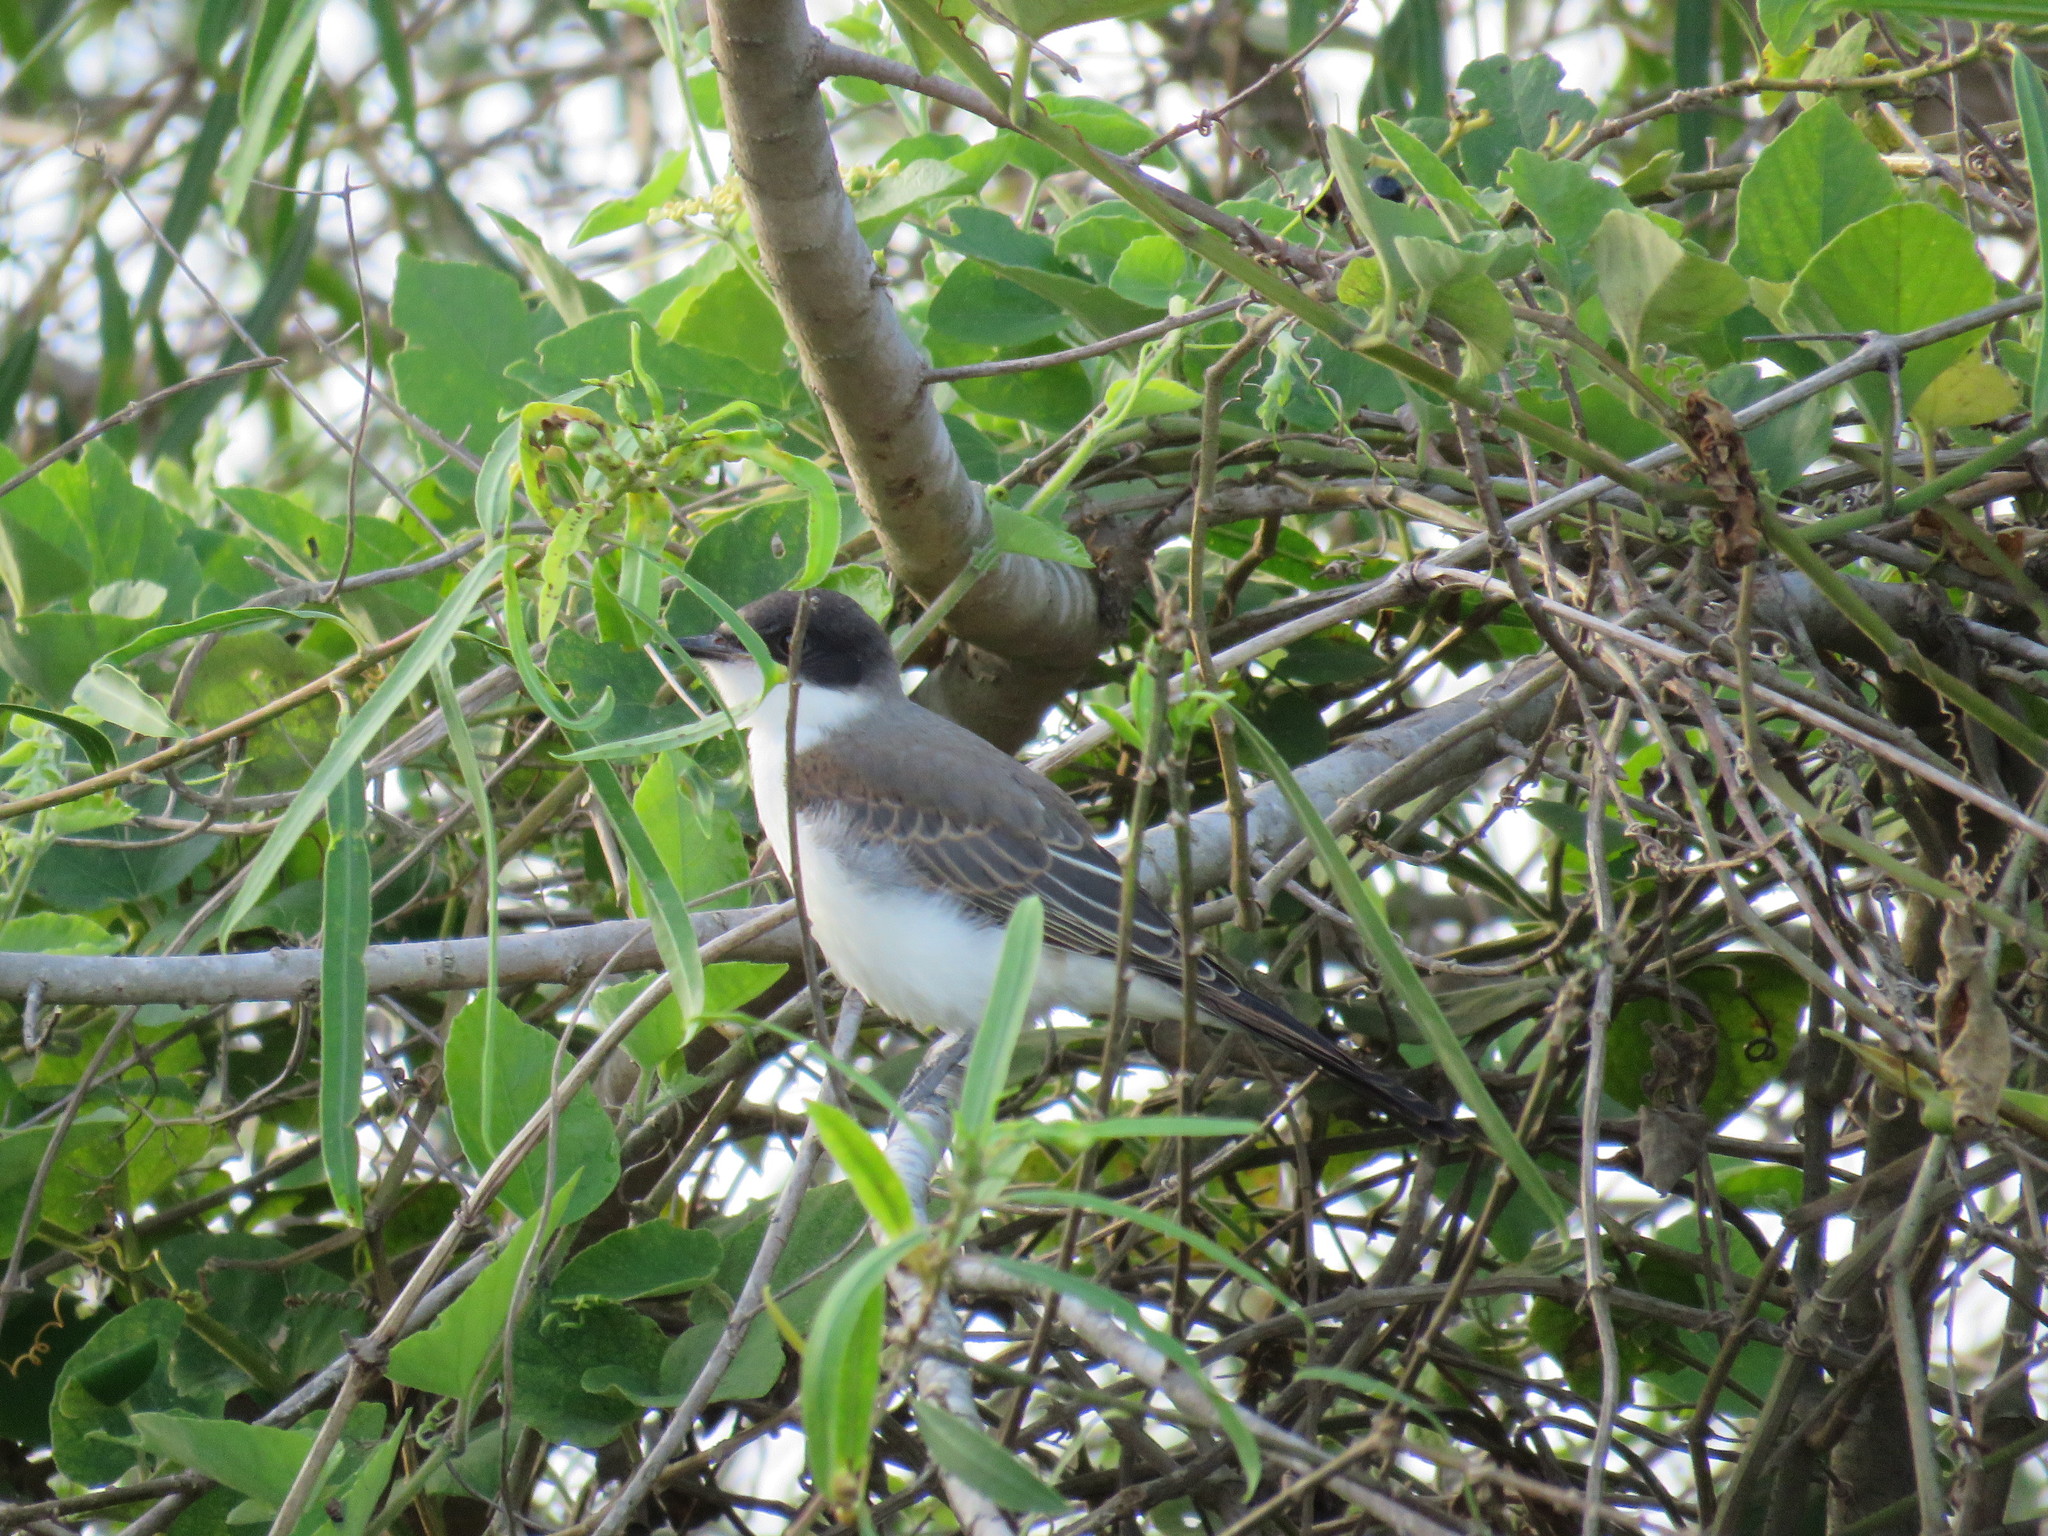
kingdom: Animalia
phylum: Chordata
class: Aves
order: Passeriformes
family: Tyrannidae
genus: Tyrannus
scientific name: Tyrannus savana
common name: Fork-tailed flycatcher
